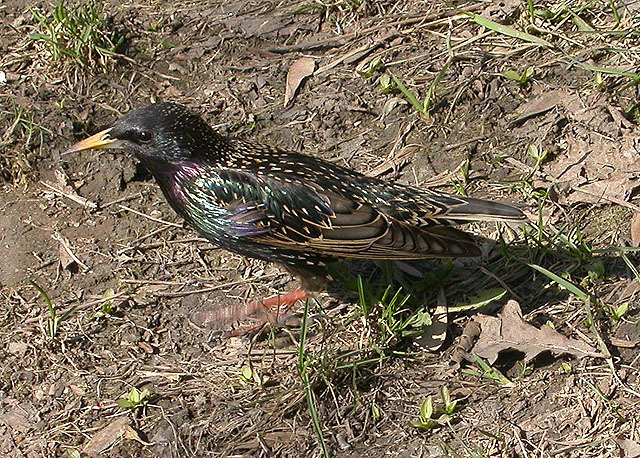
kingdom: Animalia
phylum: Chordata
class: Aves
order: Passeriformes
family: Sturnidae
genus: Sturnus
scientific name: Sturnus vulgaris
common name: Common starling
